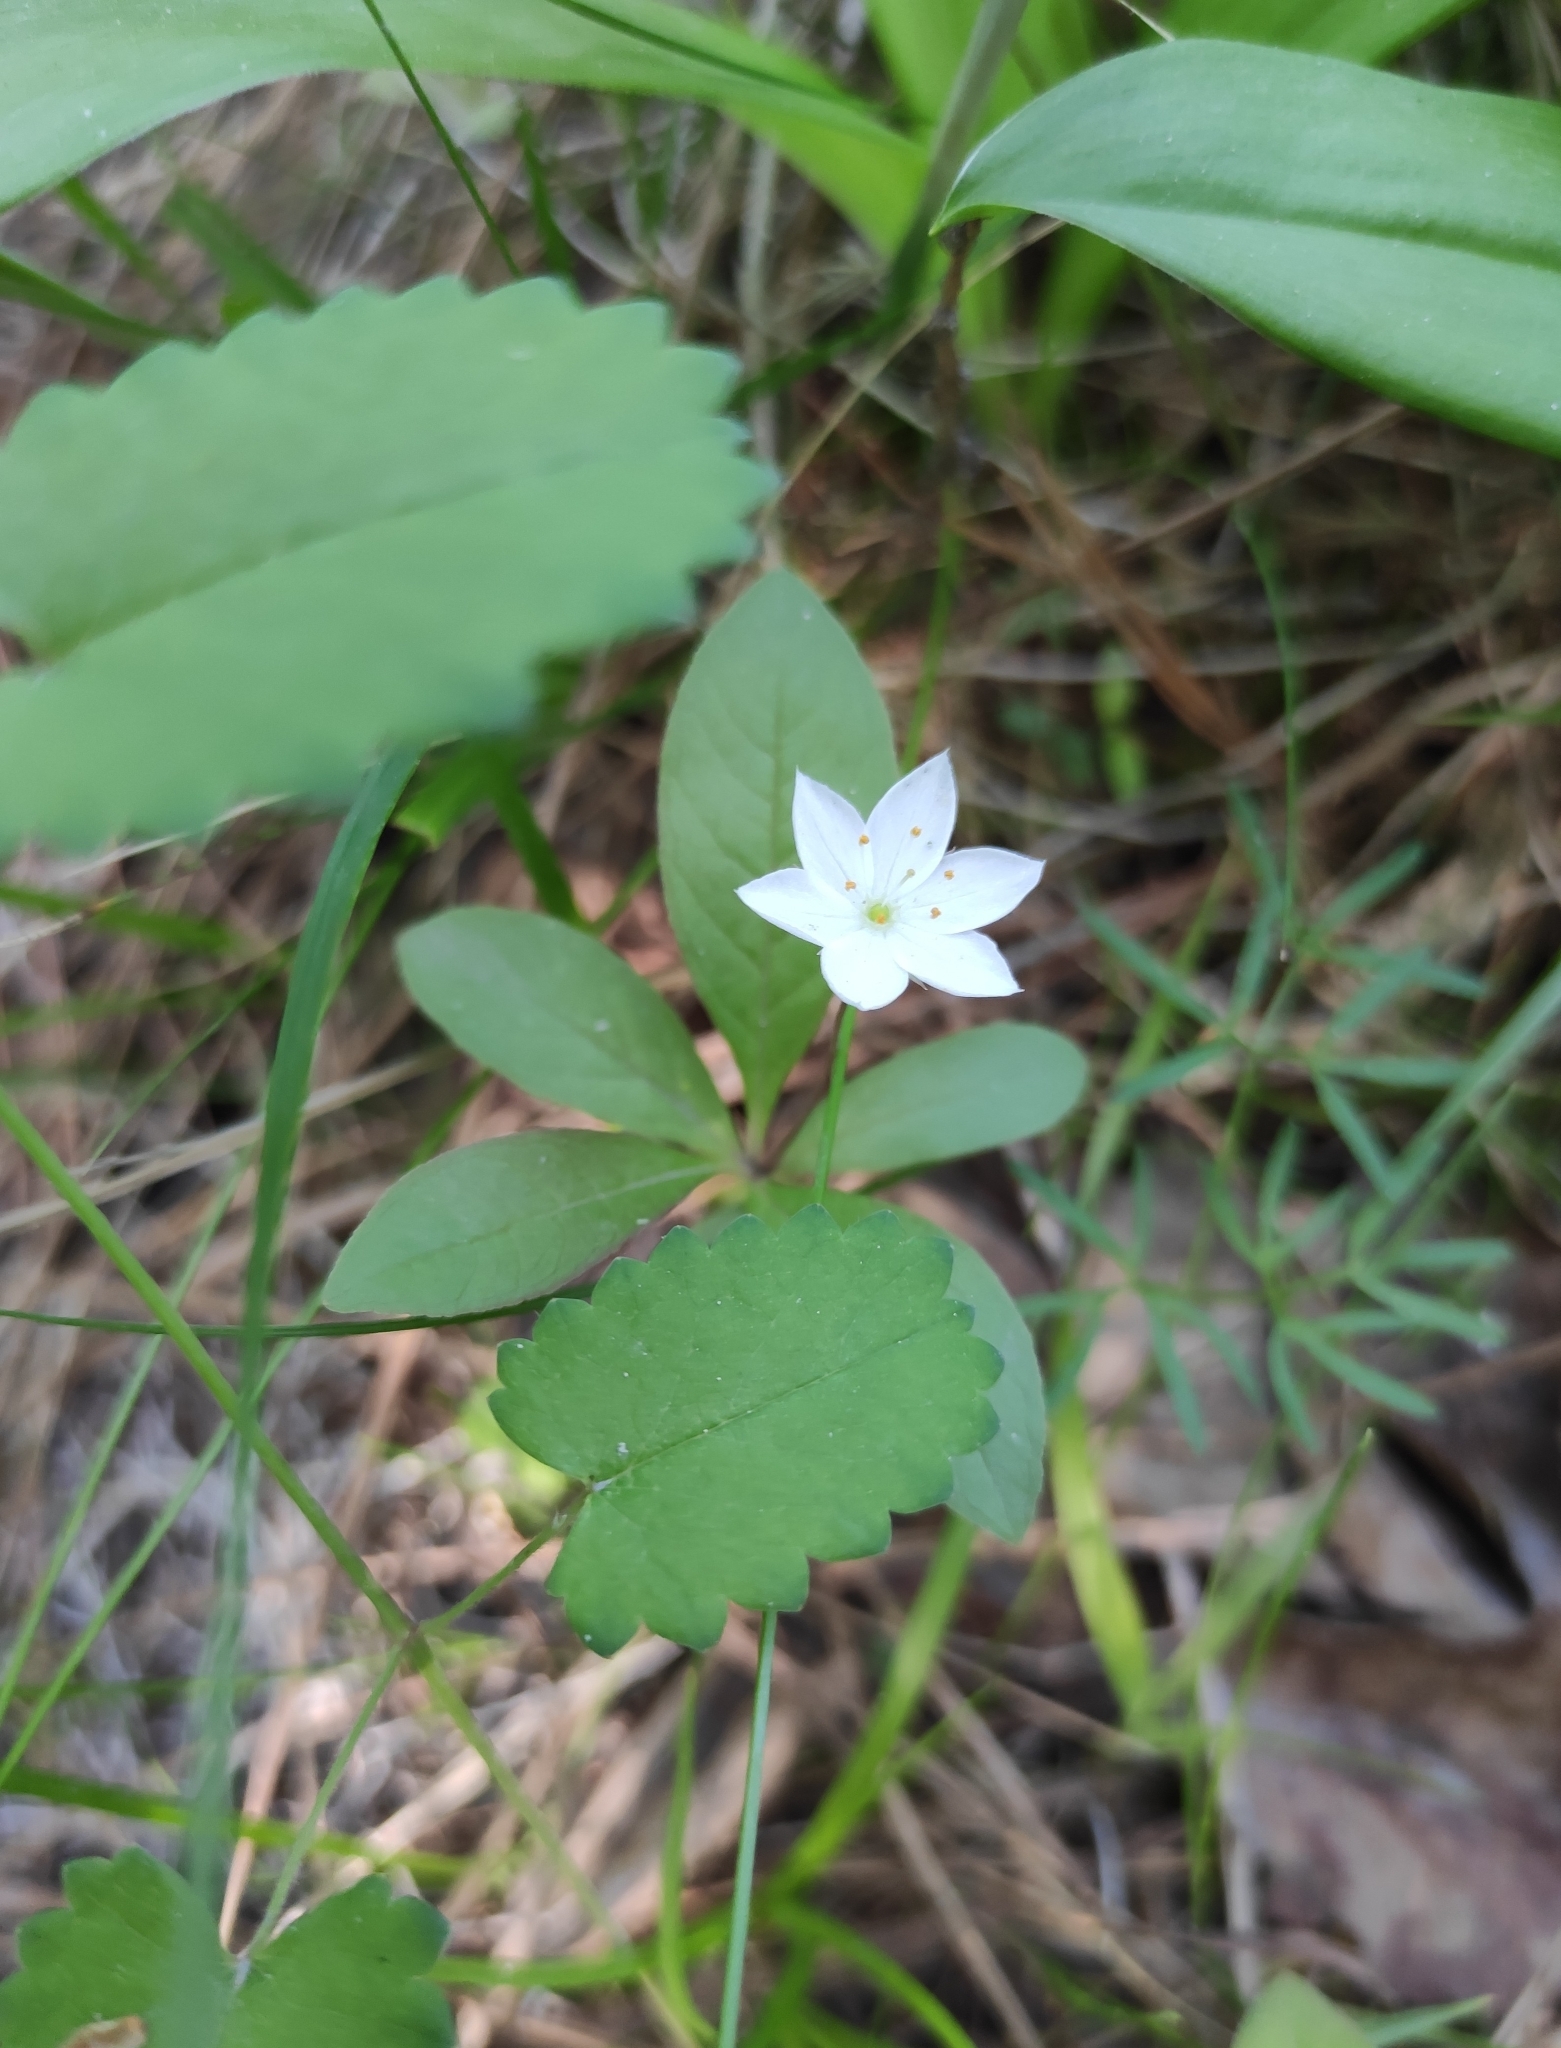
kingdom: Plantae
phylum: Tracheophyta
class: Magnoliopsida
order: Ericales
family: Primulaceae
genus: Lysimachia
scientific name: Lysimachia europaea
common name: Arctic starflower
